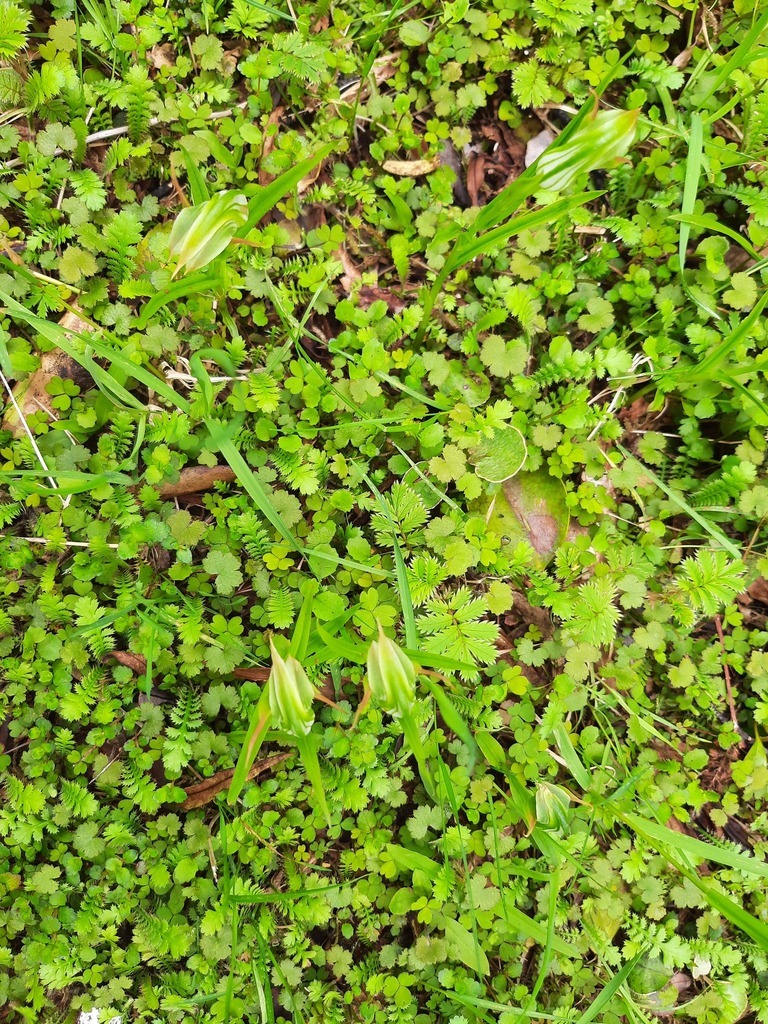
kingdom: Plantae
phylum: Tracheophyta
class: Liliopsida
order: Asparagales
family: Orchidaceae
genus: Pterostylis
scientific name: Pterostylis patens
